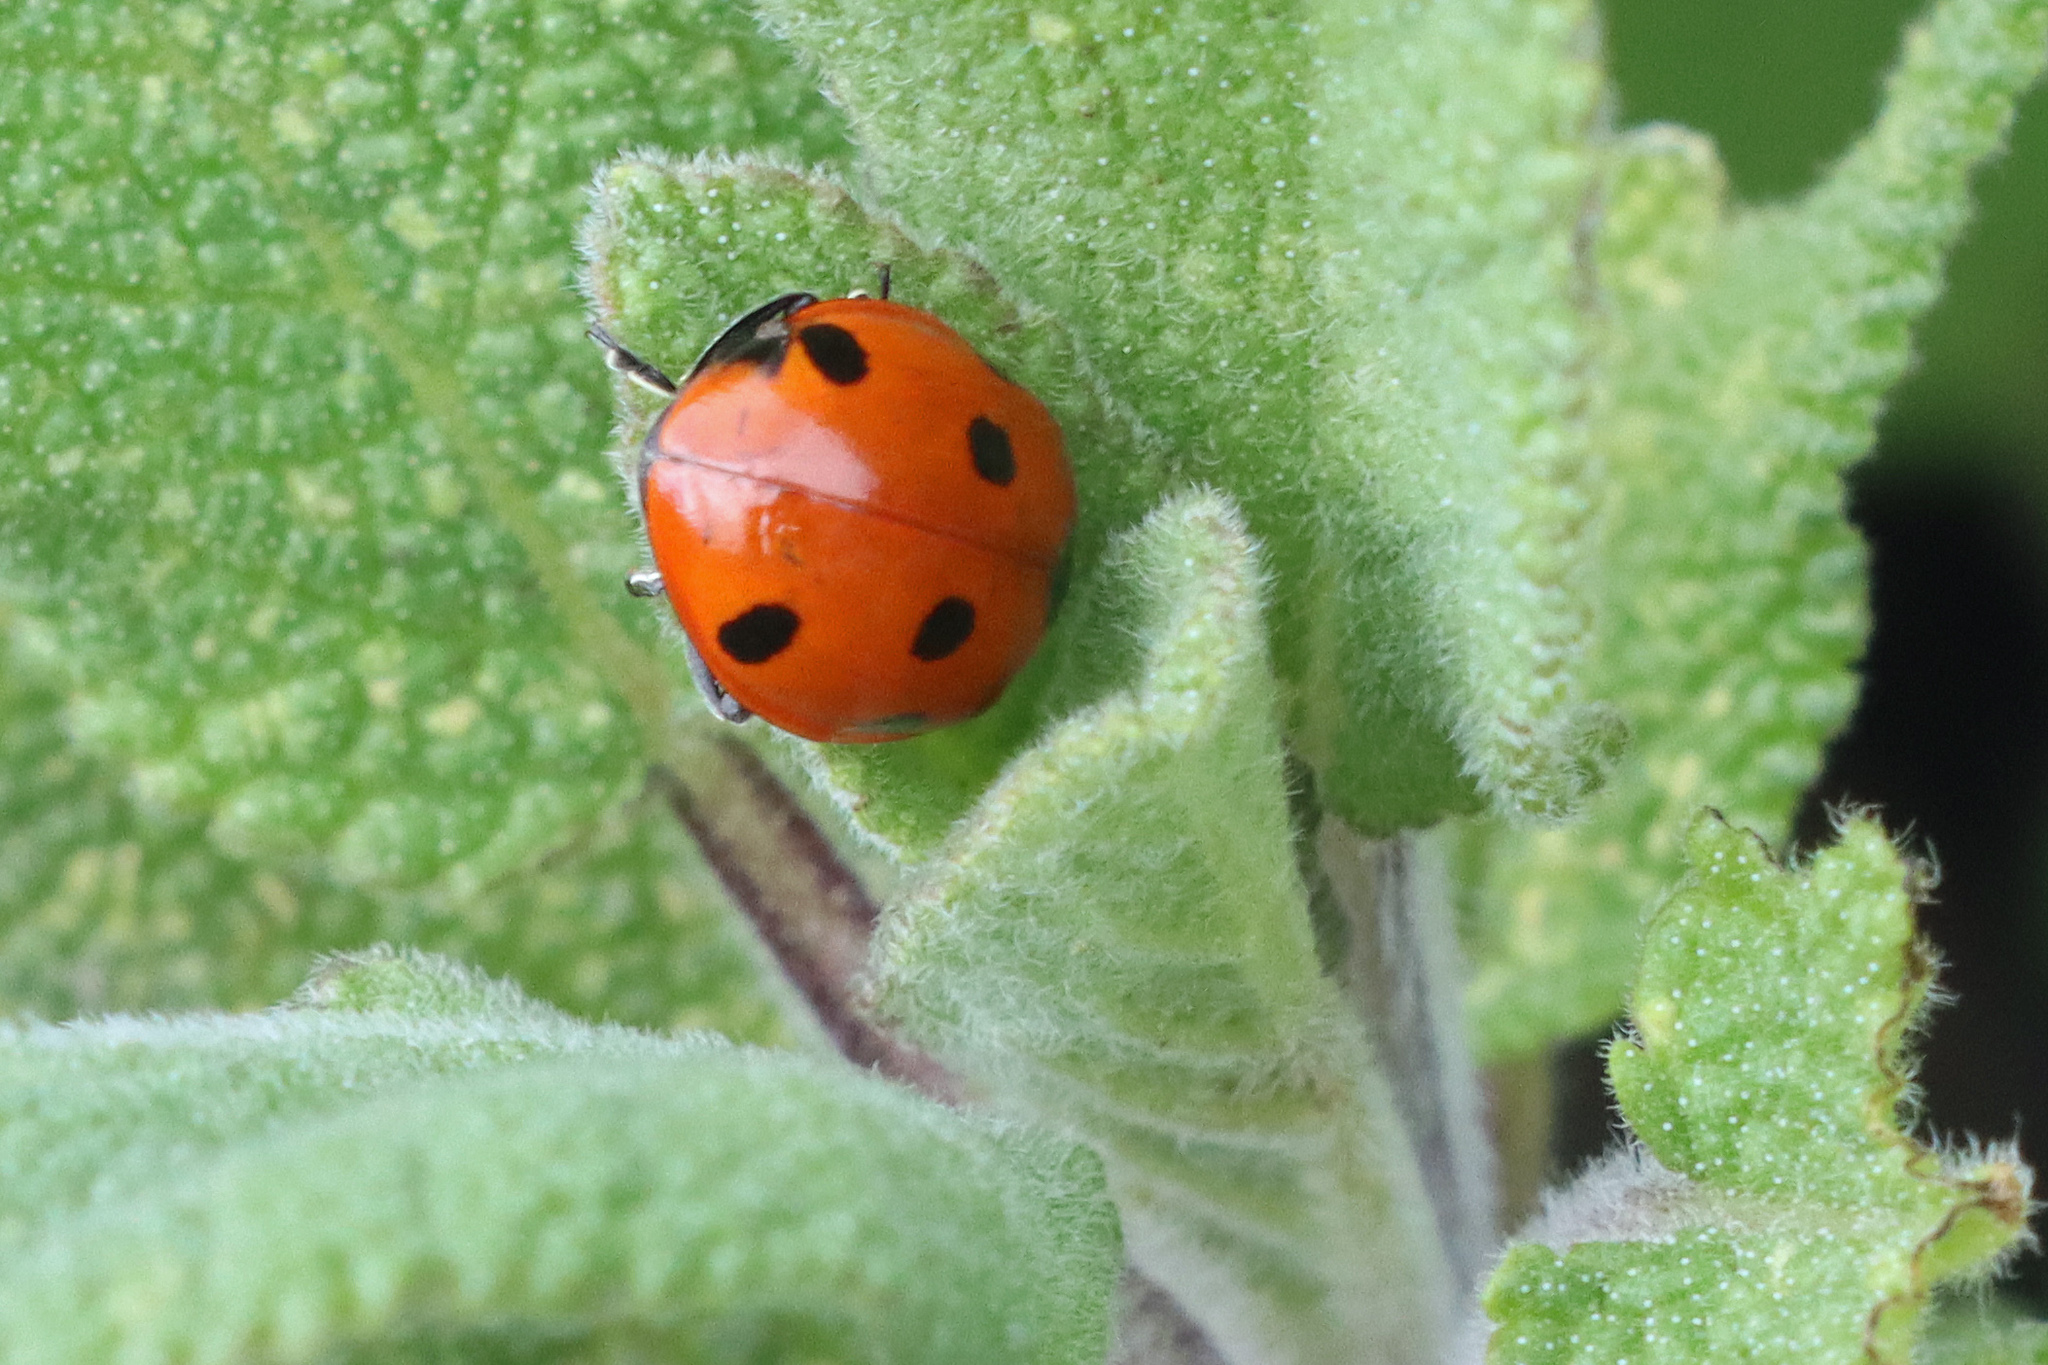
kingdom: Animalia
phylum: Arthropoda
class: Insecta
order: Coleoptera
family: Coccinellidae
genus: Coccinella
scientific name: Coccinella septempunctata
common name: Sevenspotted lady beetle
